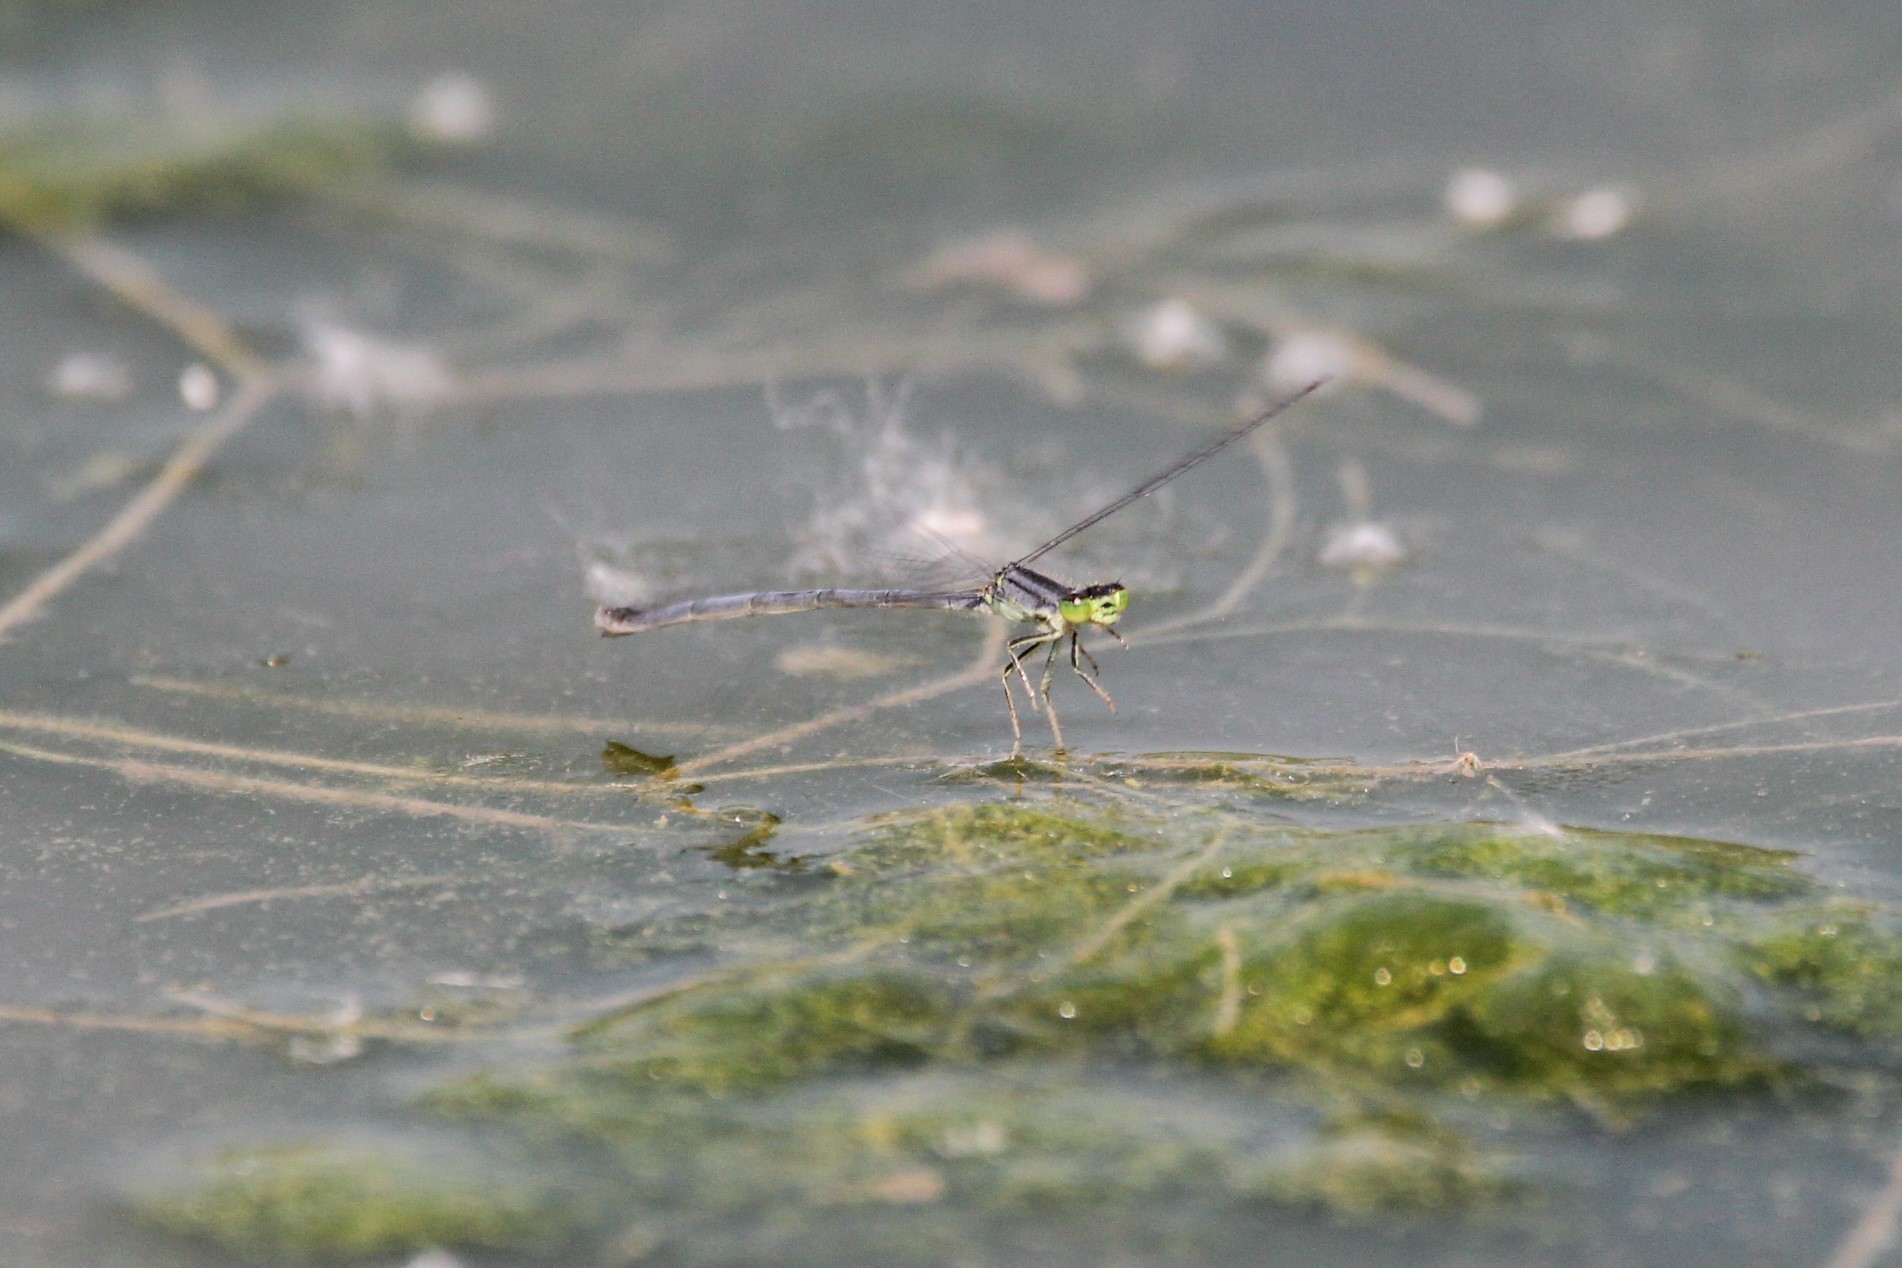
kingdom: Animalia
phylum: Arthropoda
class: Insecta
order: Odonata
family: Coenagrionidae
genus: Ischnura
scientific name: Ischnura verticalis
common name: Eastern forktail
